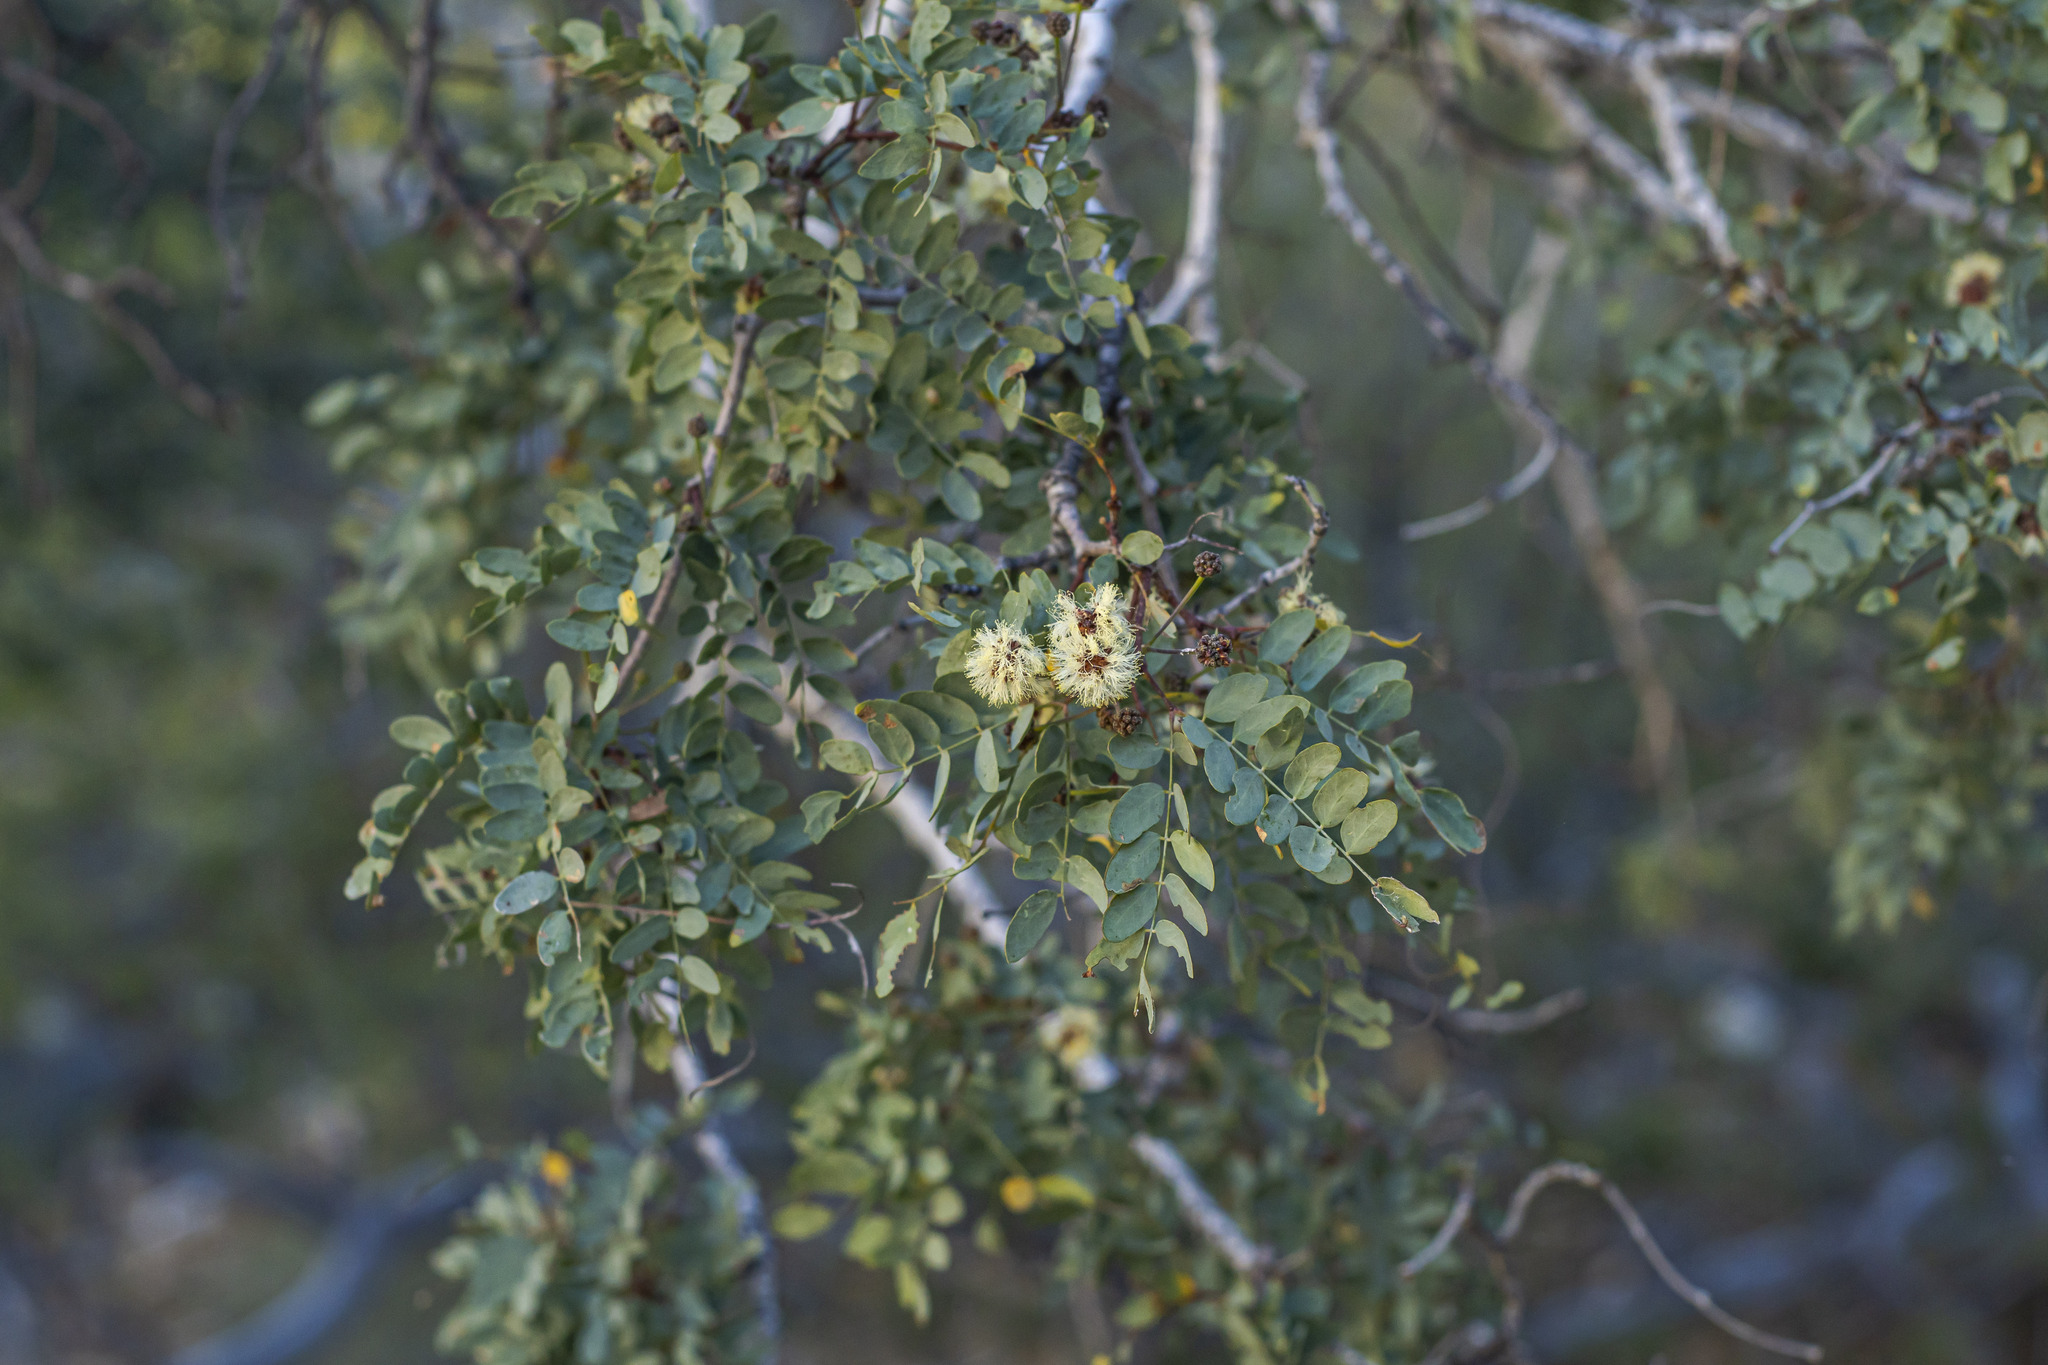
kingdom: Plantae
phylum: Tracheophyta
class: Magnoliopsida
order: Fabales
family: Fabaceae
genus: Lysiloma
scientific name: Lysiloma candidum
